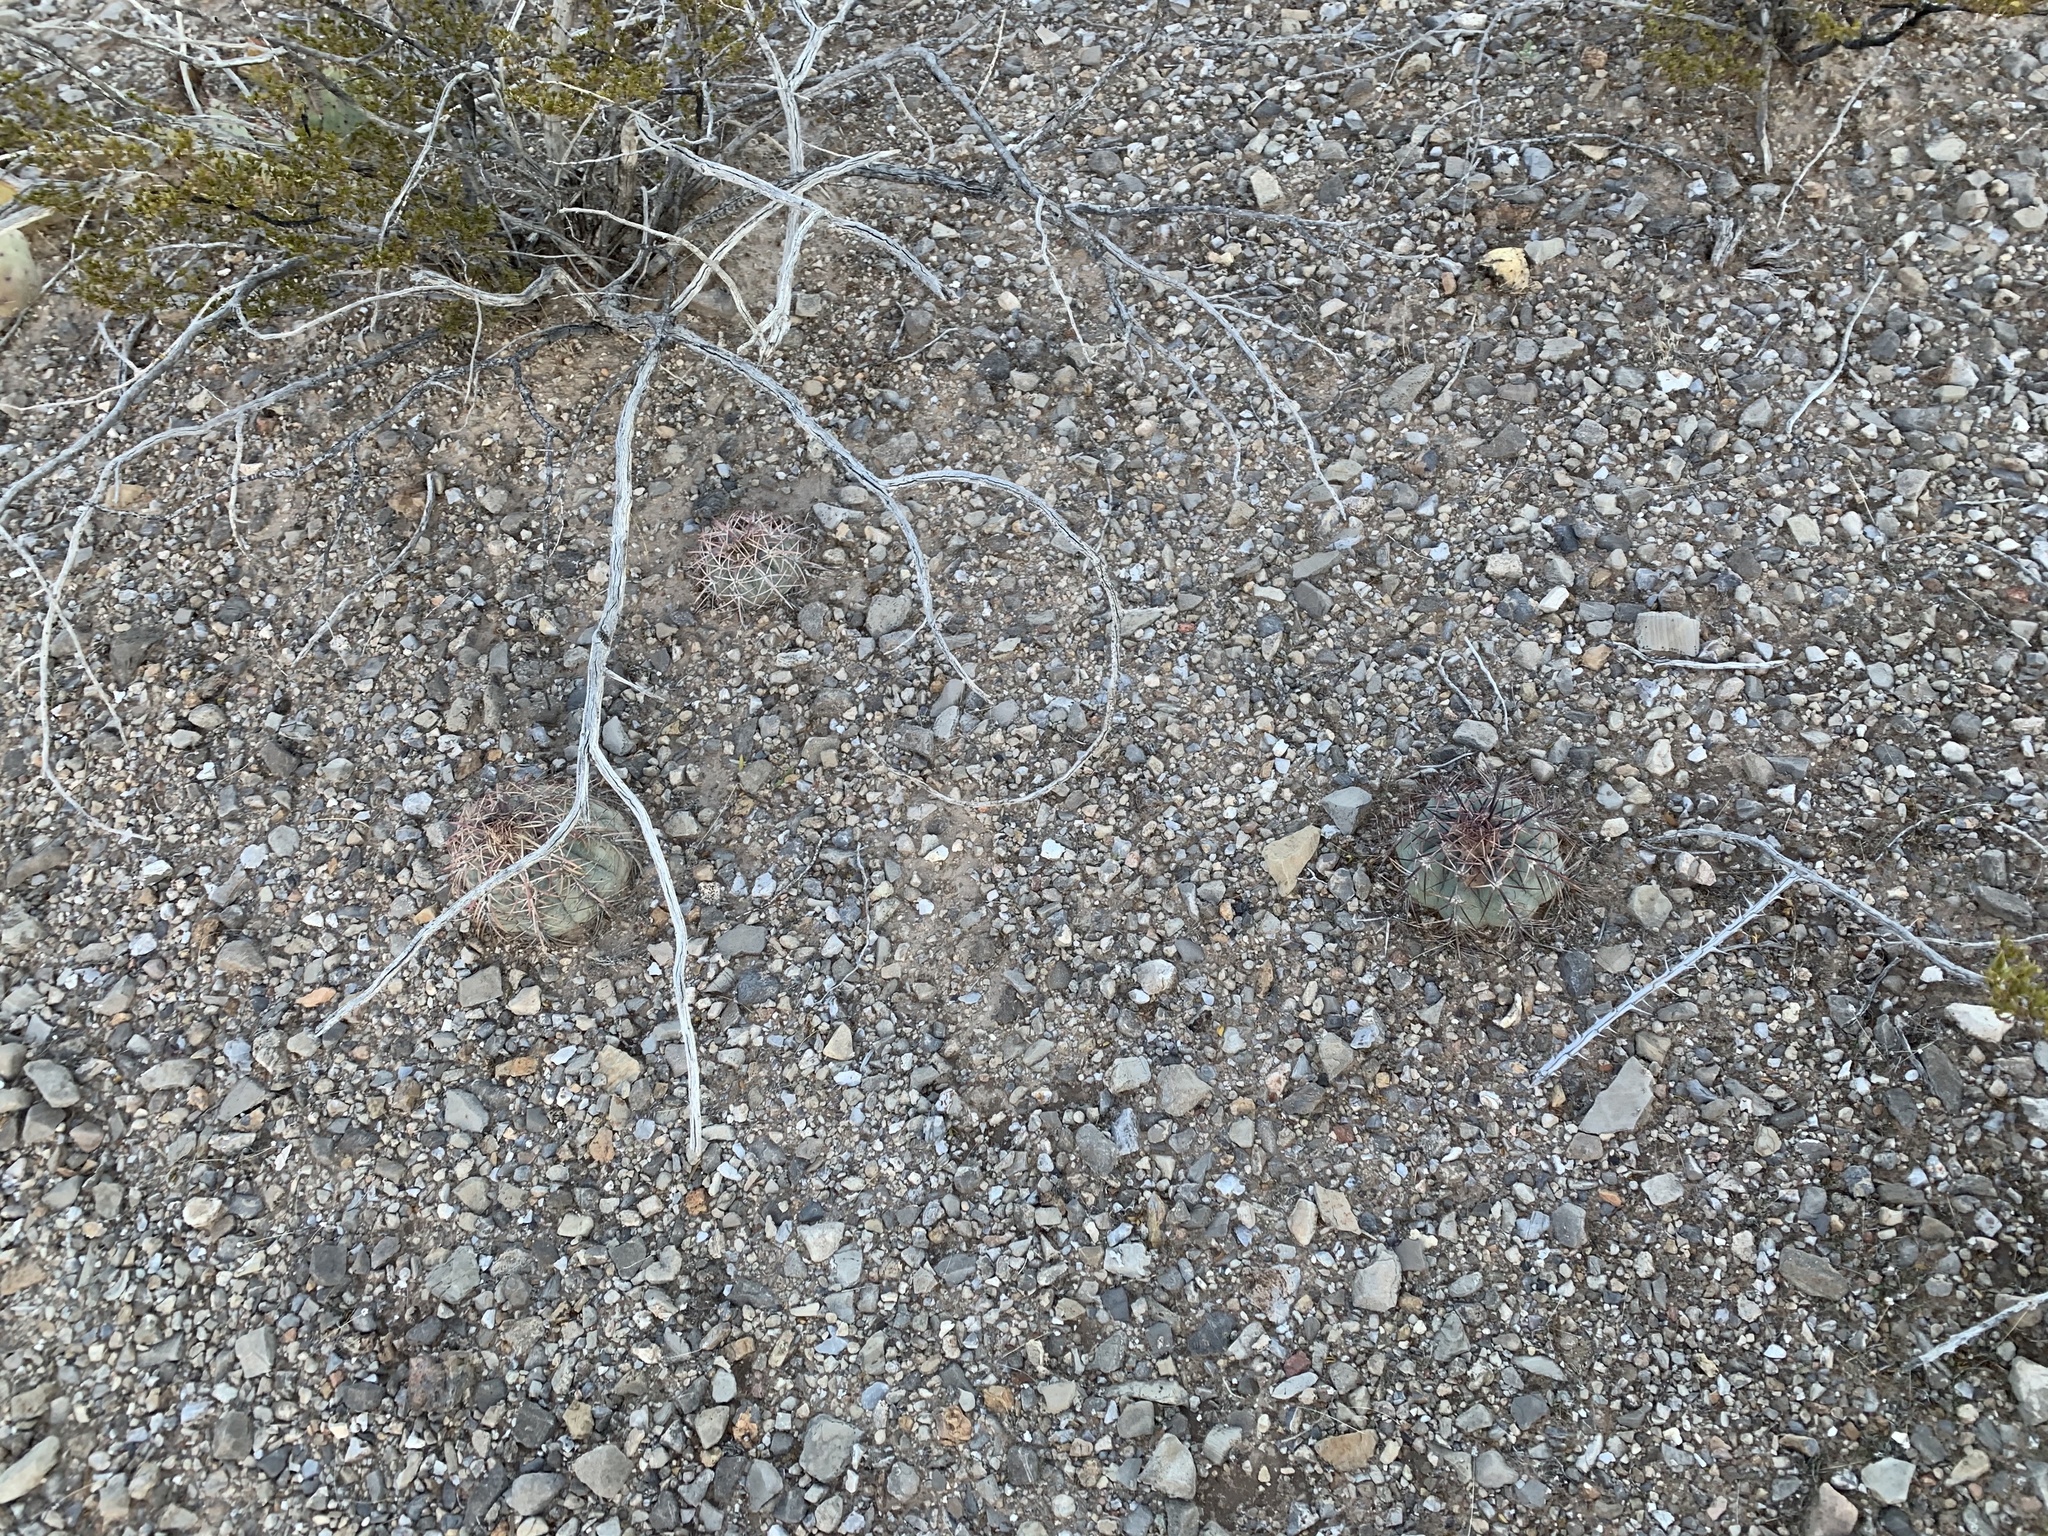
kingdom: Plantae
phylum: Tracheophyta
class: Magnoliopsida
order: Caryophyllales
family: Cactaceae
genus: Echinocactus
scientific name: Echinocactus horizonthalonius
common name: Devilshead
